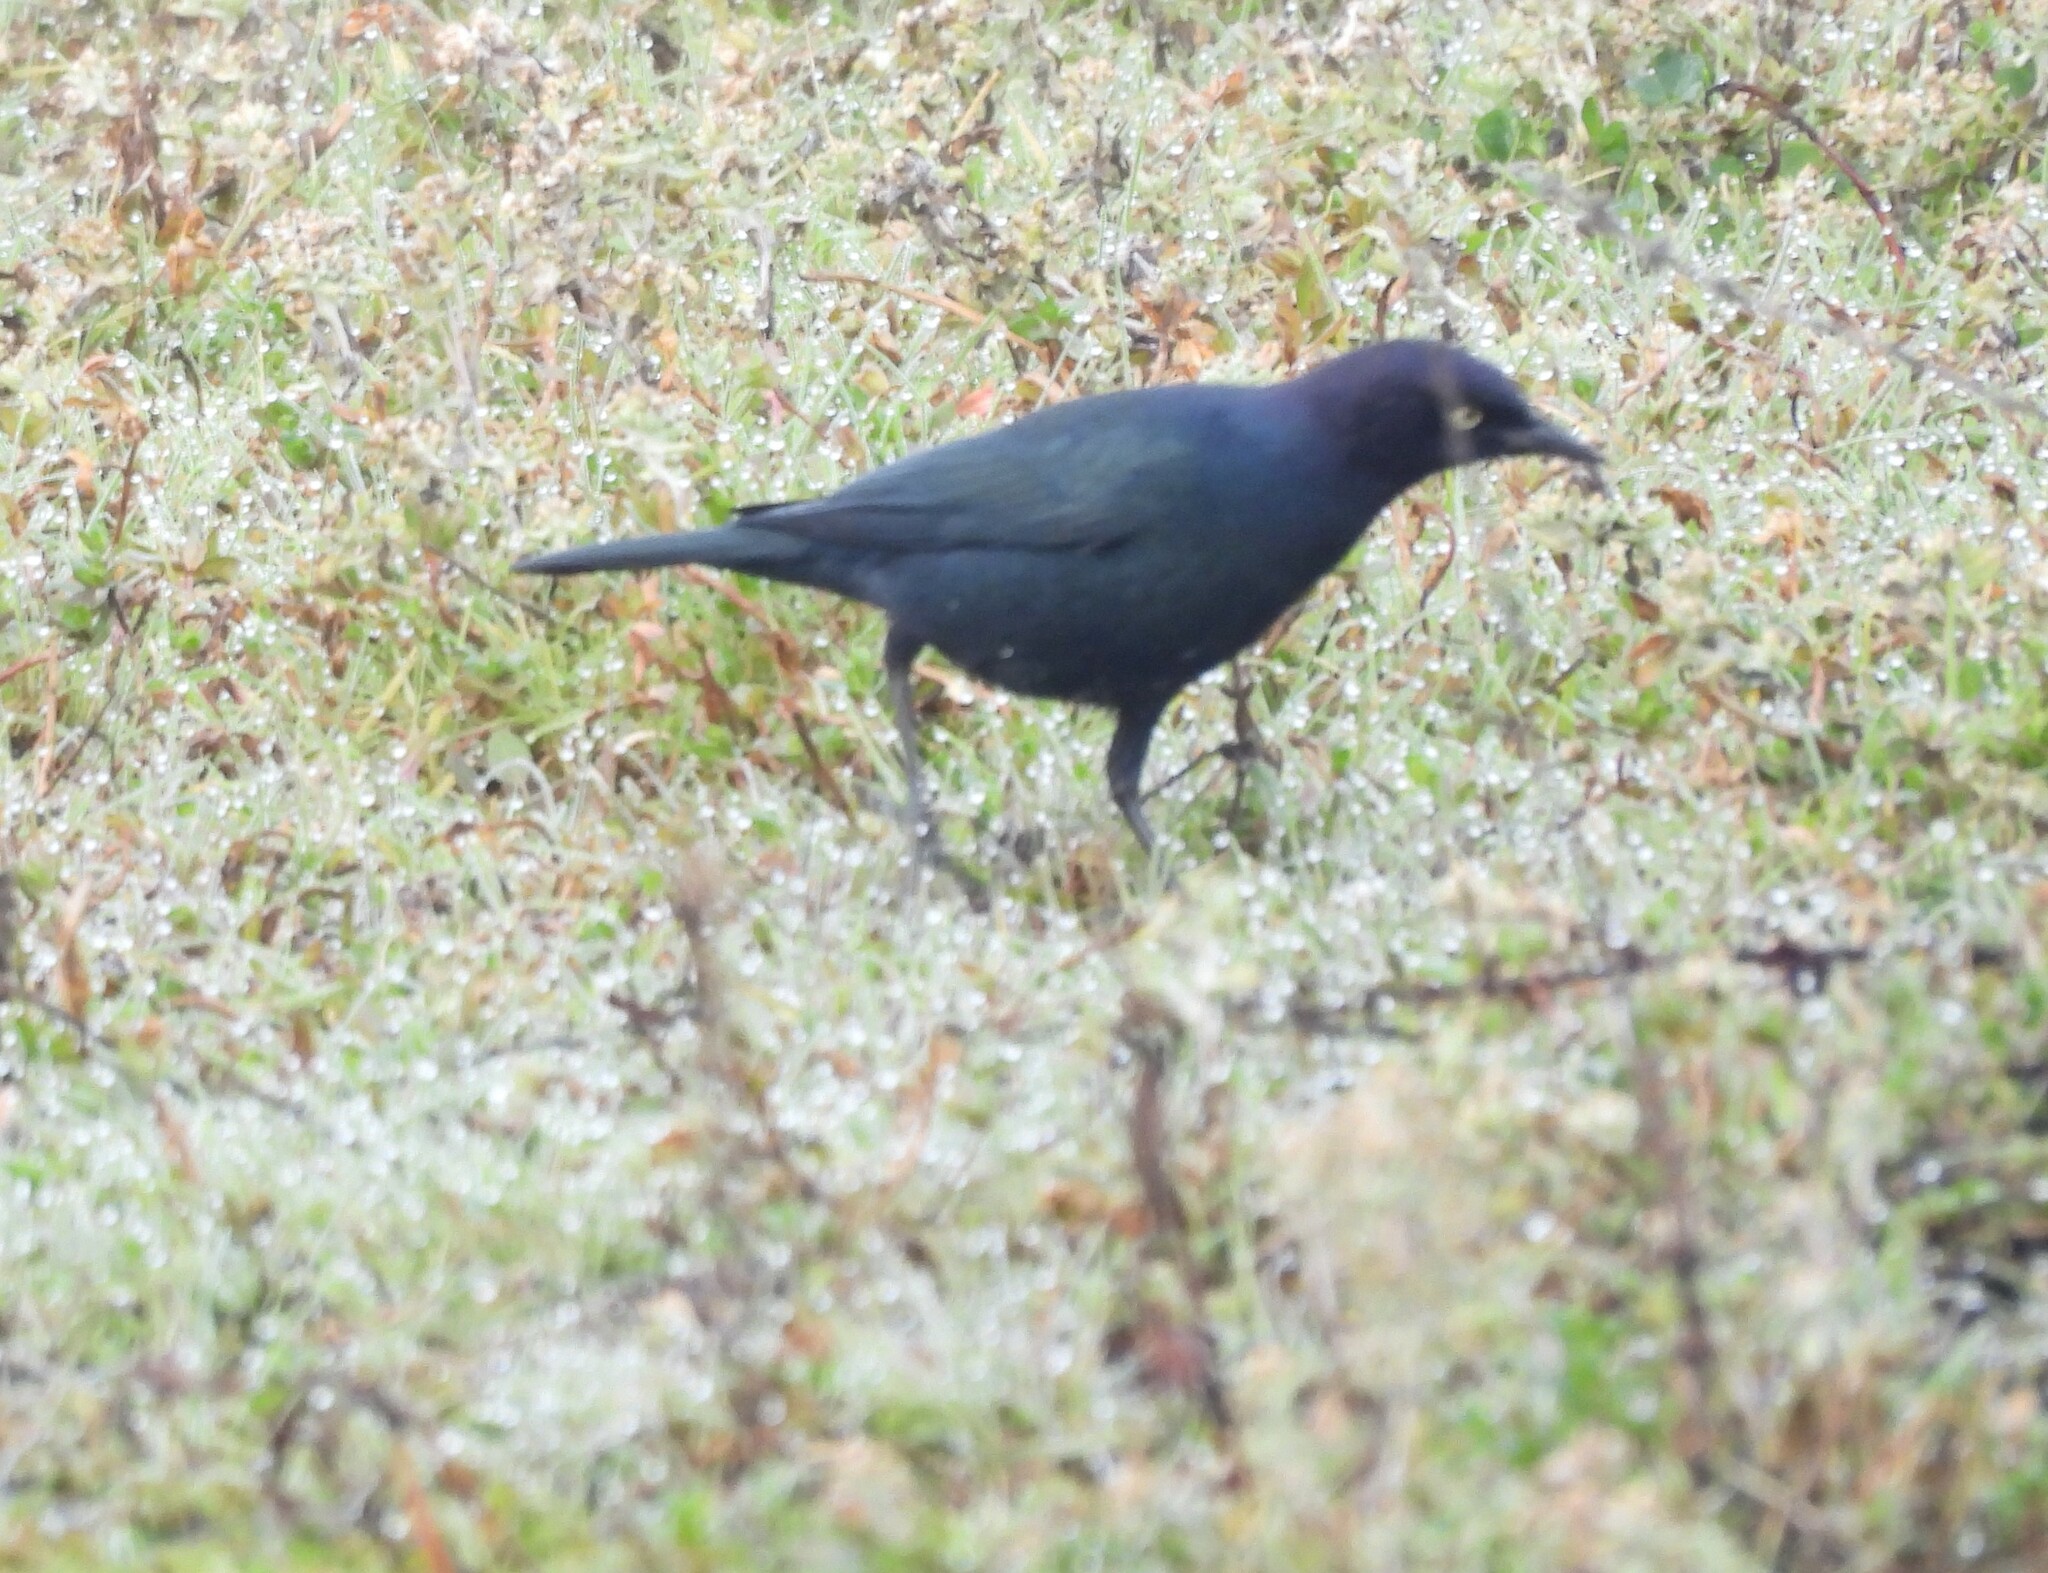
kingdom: Animalia
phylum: Chordata
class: Aves
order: Passeriformes
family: Icteridae
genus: Euphagus
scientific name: Euphagus cyanocephalus
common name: Brewer's blackbird
